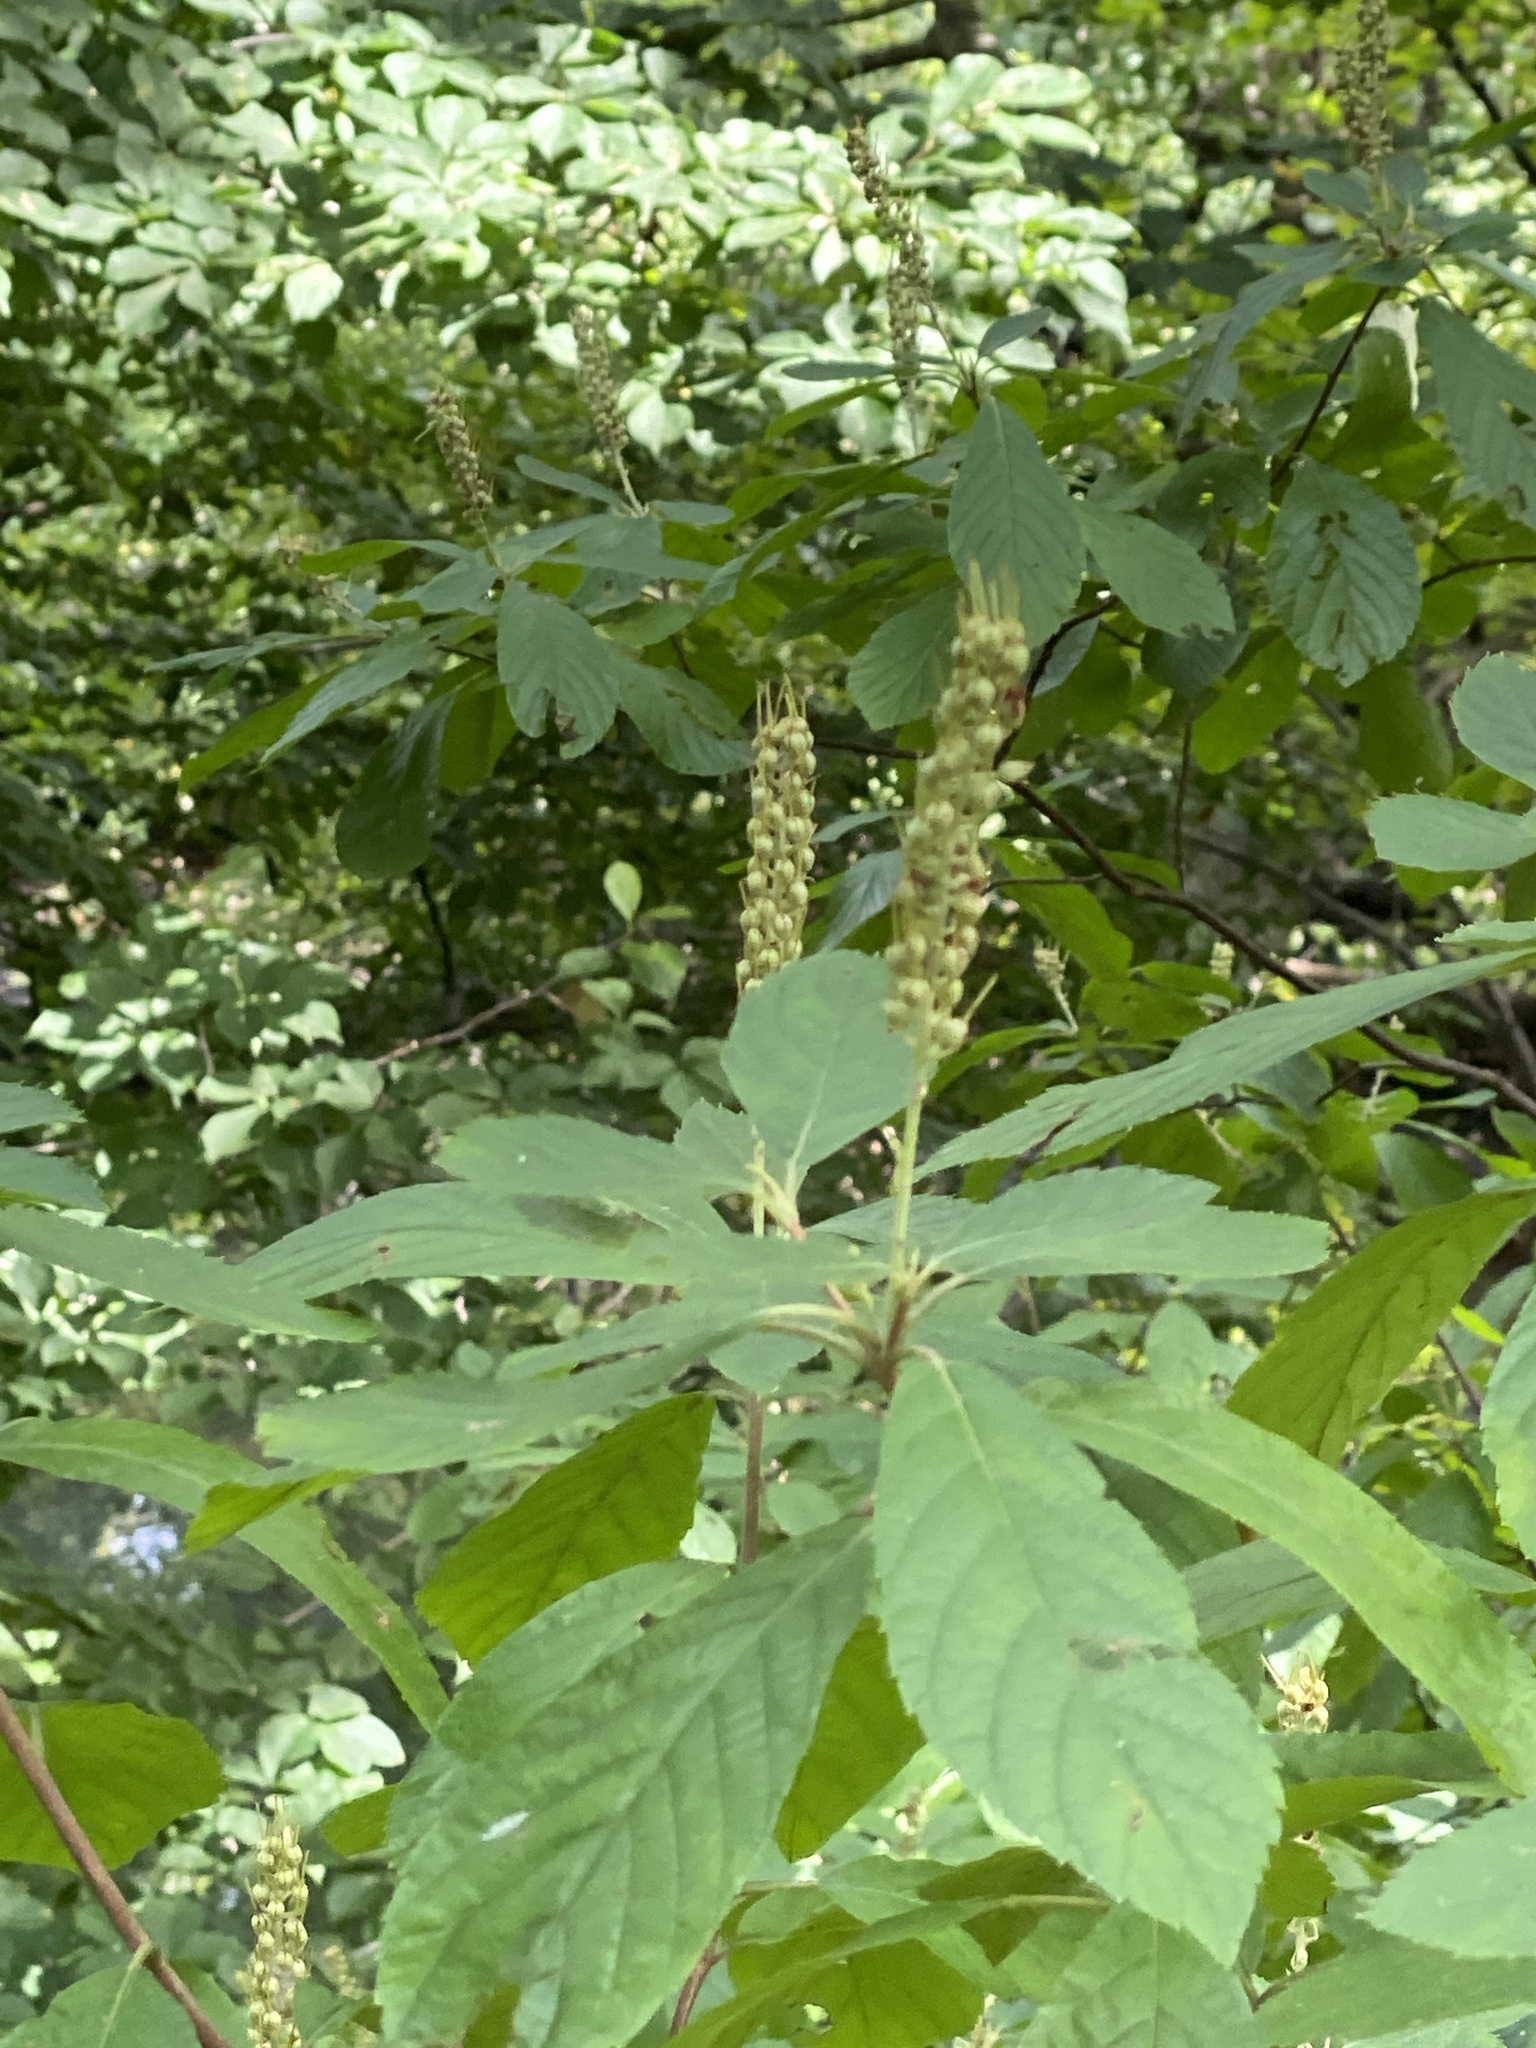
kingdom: Plantae
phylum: Tracheophyta
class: Magnoliopsida
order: Ericales
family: Clethraceae
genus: Clethra
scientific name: Clethra alnifolia
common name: Sweet pepperbush
